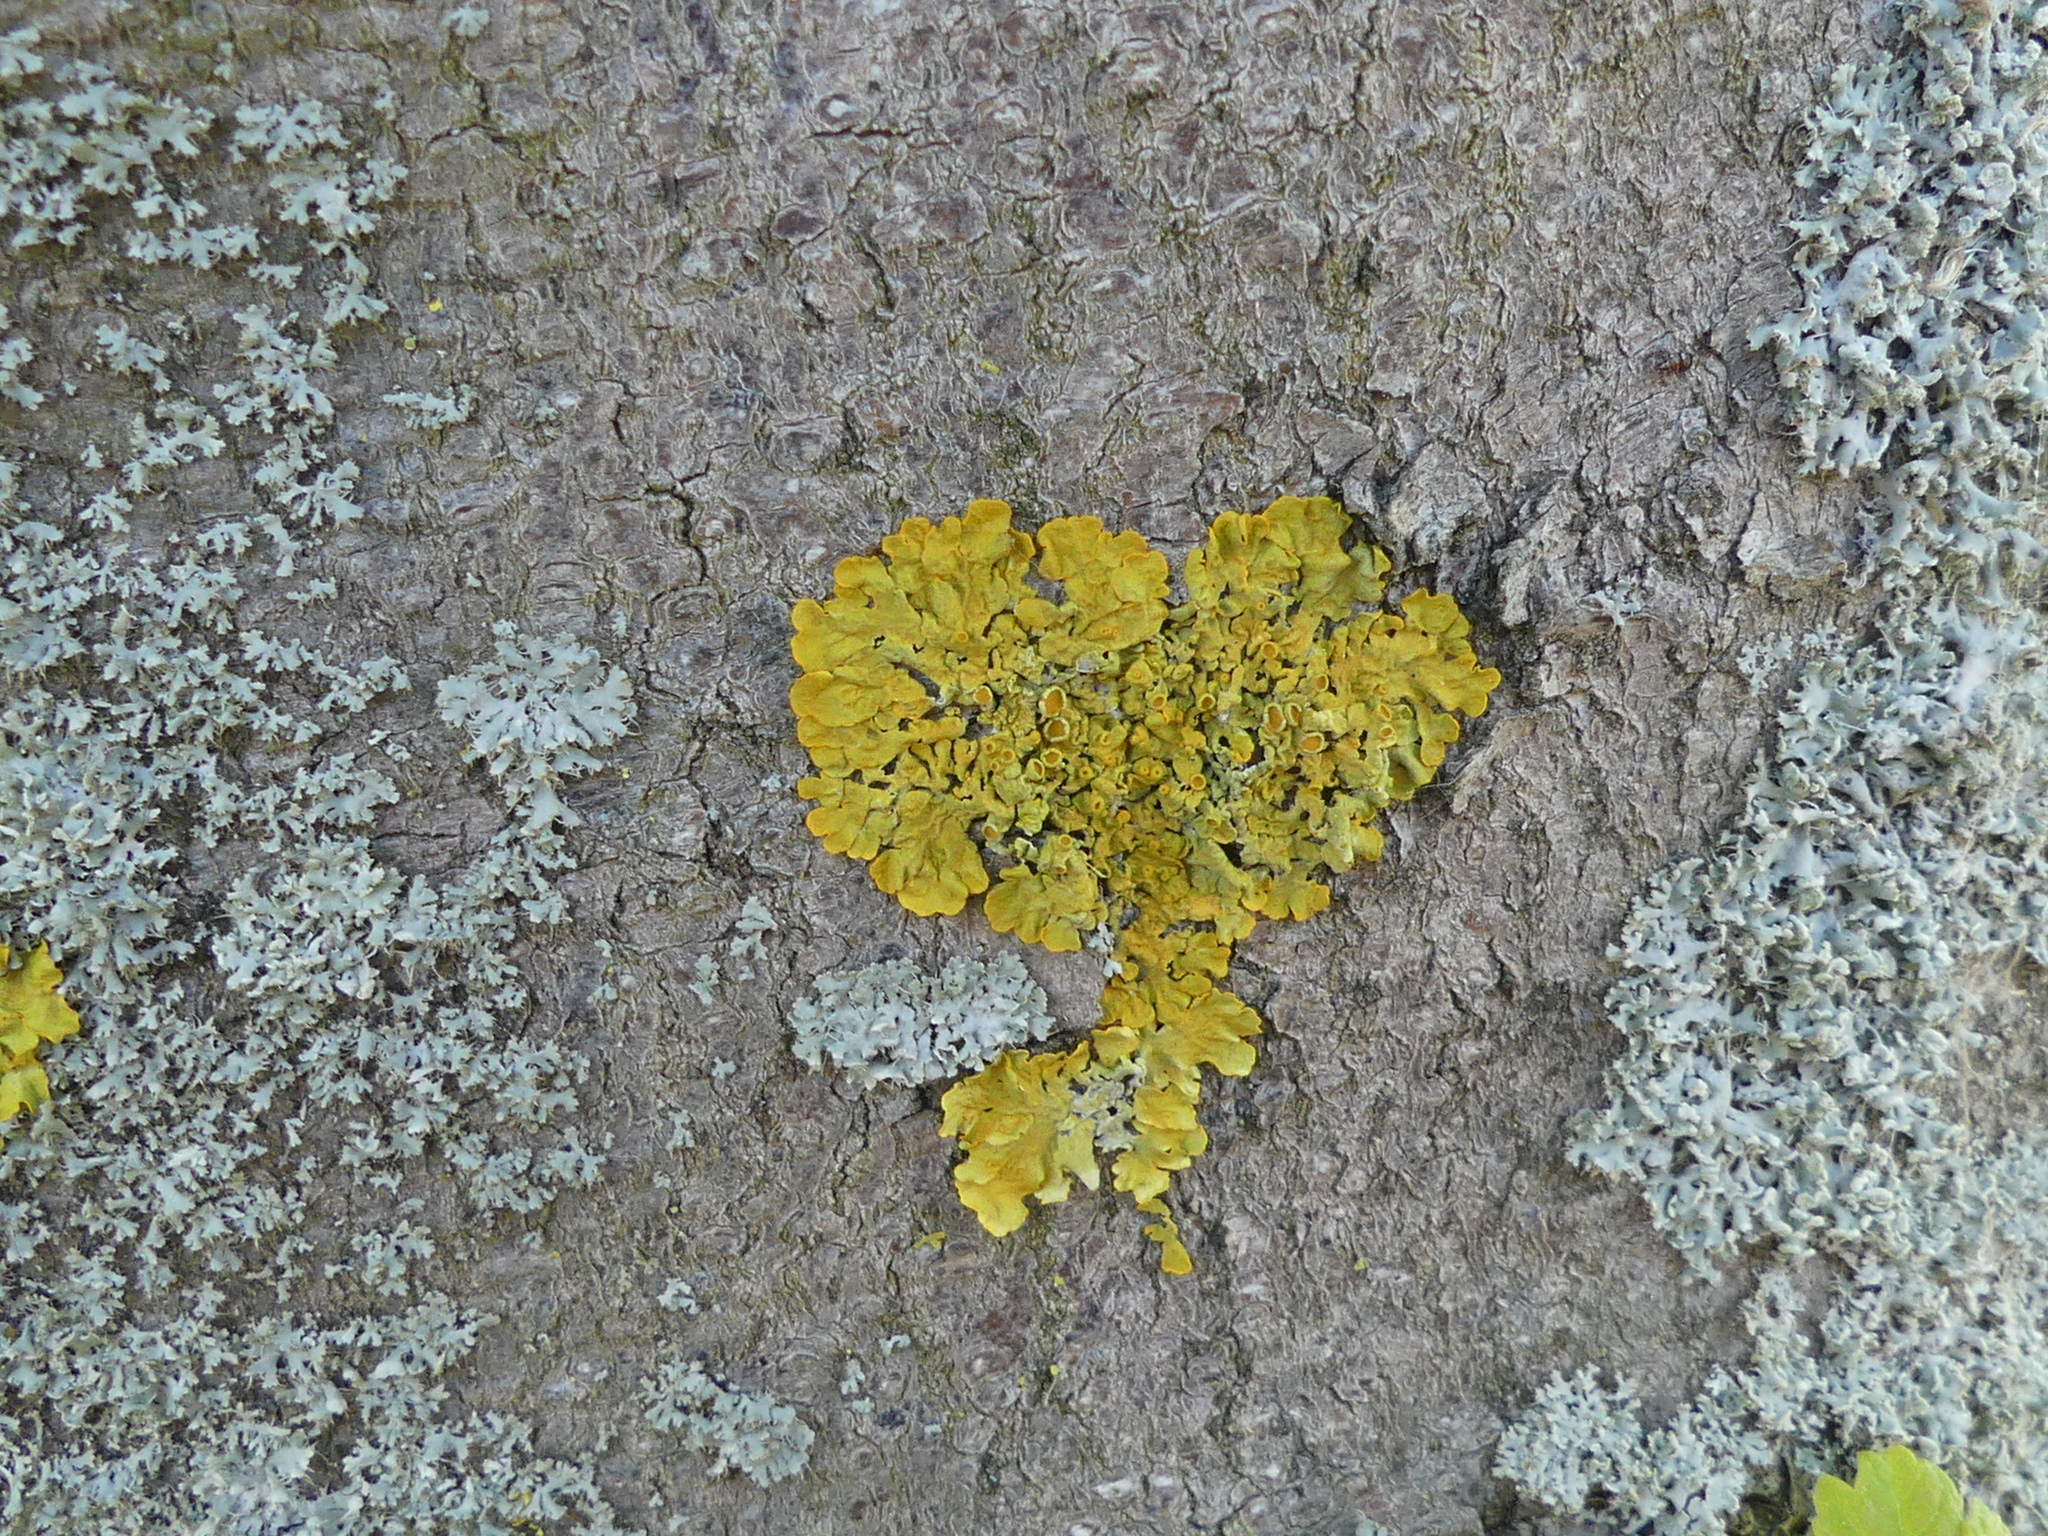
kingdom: Fungi
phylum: Ascomycota
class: Lecanoromycetes
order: Teloschistales
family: Teloschistaceae
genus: Xanthoria
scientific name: Xanthoria parietina
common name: Common orange lichen
